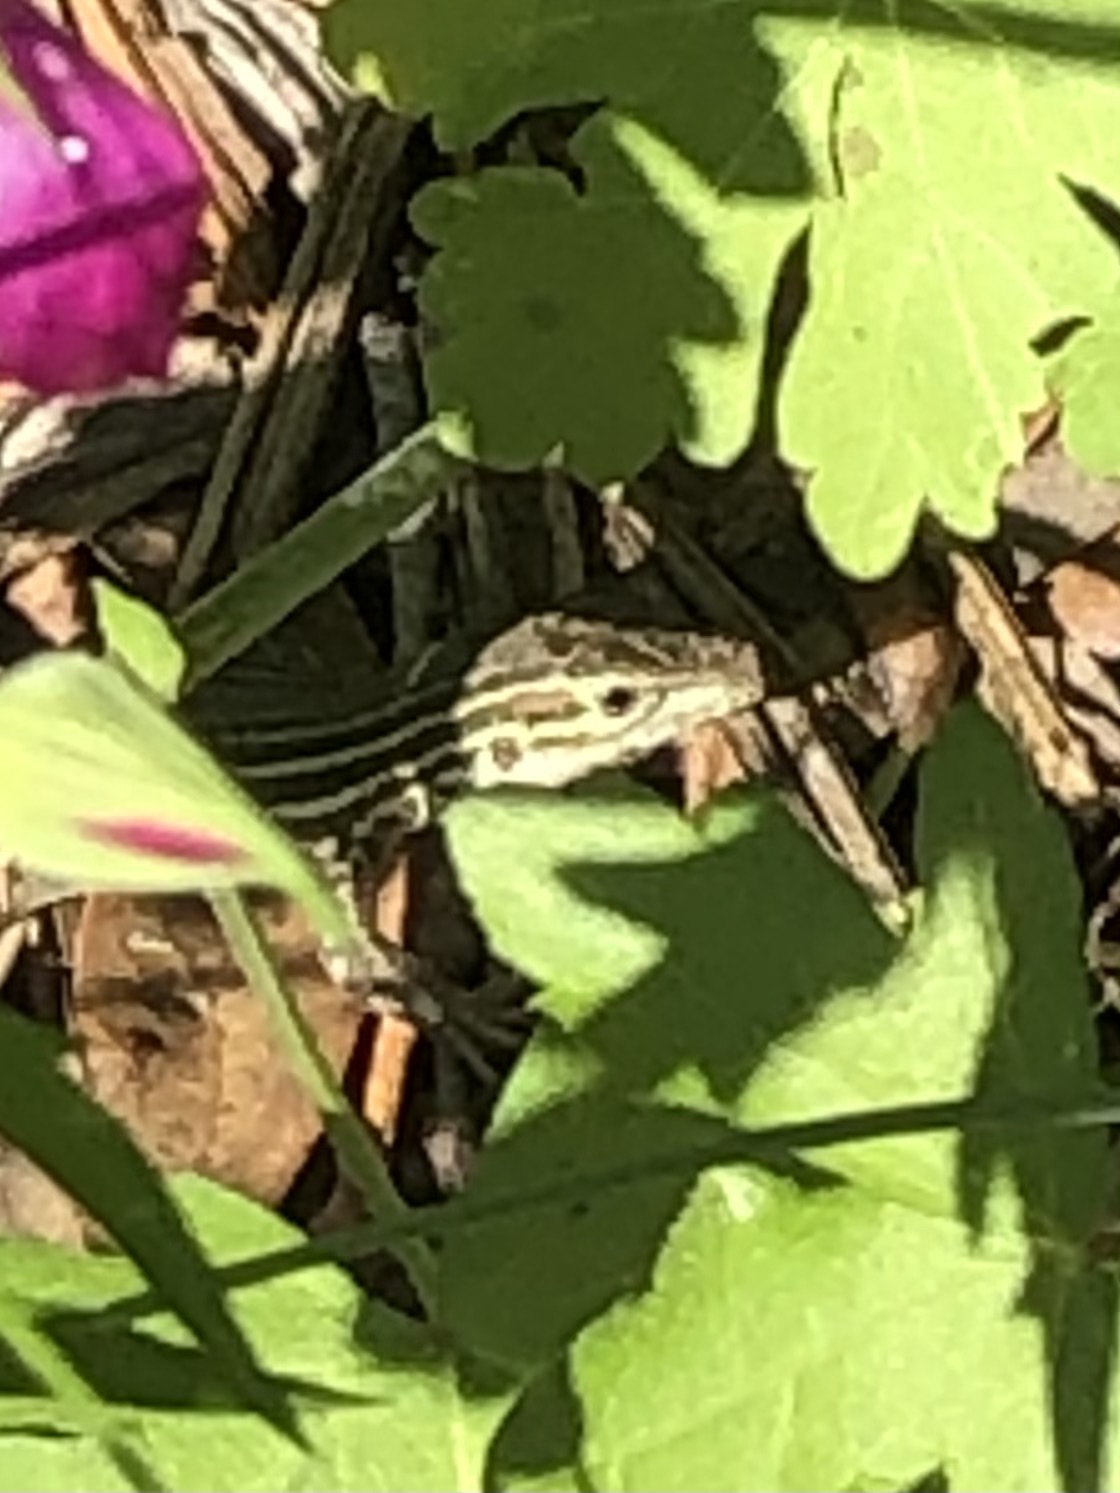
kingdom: Animalia
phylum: Chordata
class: Squamata
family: Teiidae
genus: Aspidoscelis
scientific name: Aspidoscelis gularis
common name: Eastern spotted whiptail
